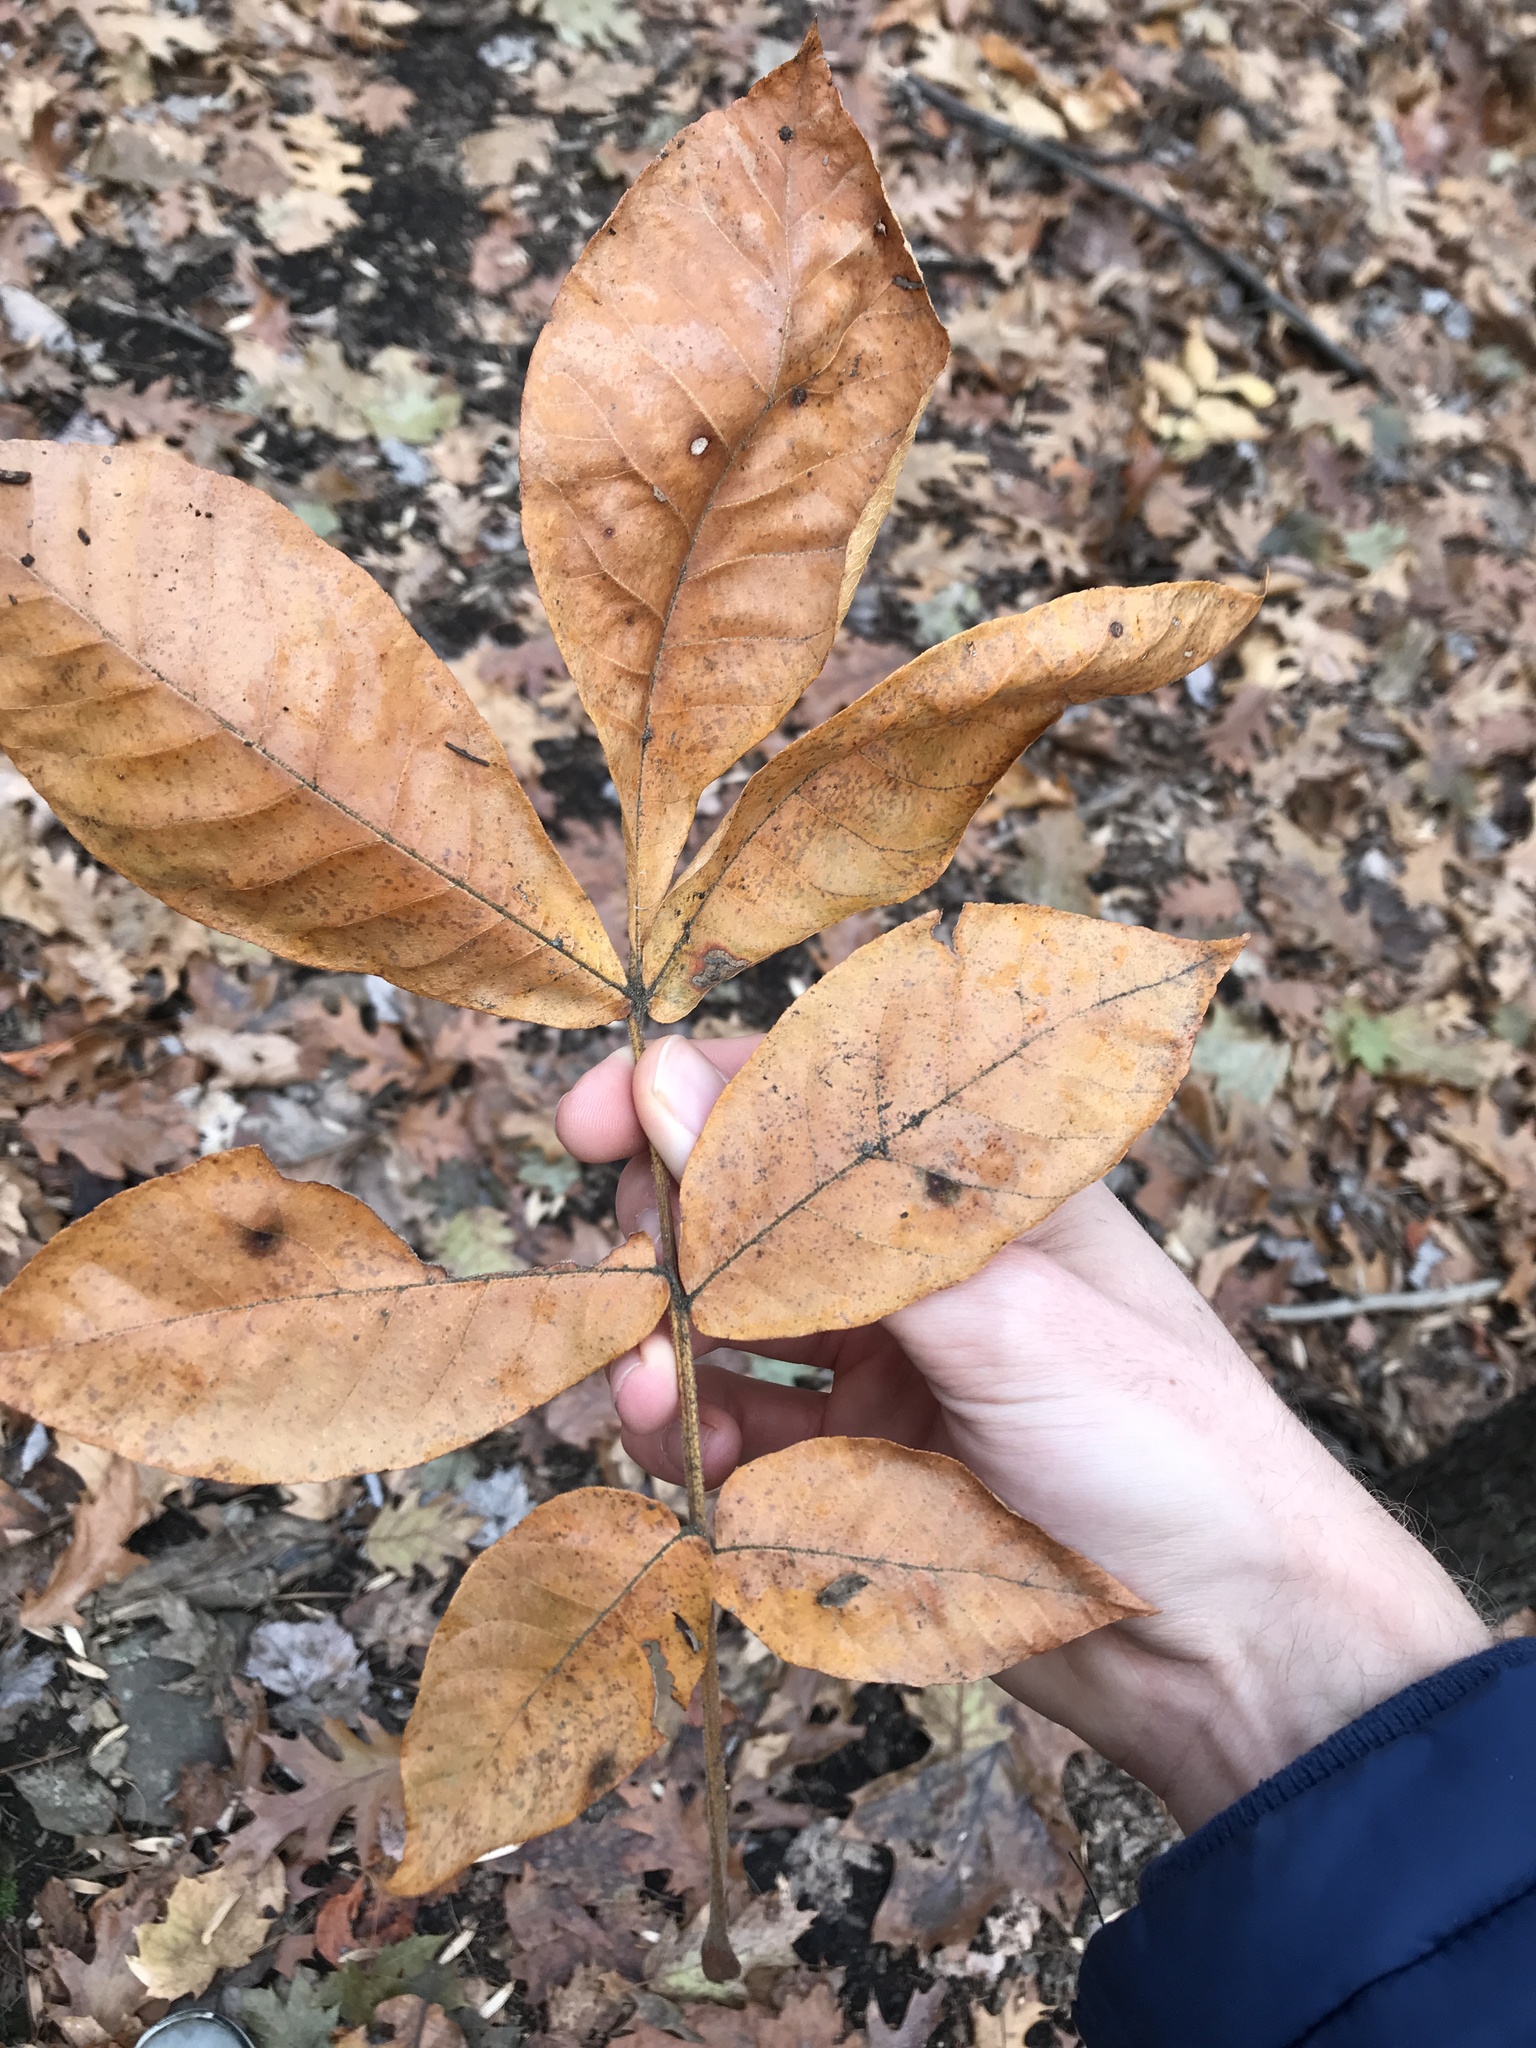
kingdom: Plantae
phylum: Tracheophyta
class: Magnoliopsida
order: Fagales
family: Juglandaceae
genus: Carya
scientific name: Carya alba
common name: Mockernut hickory
